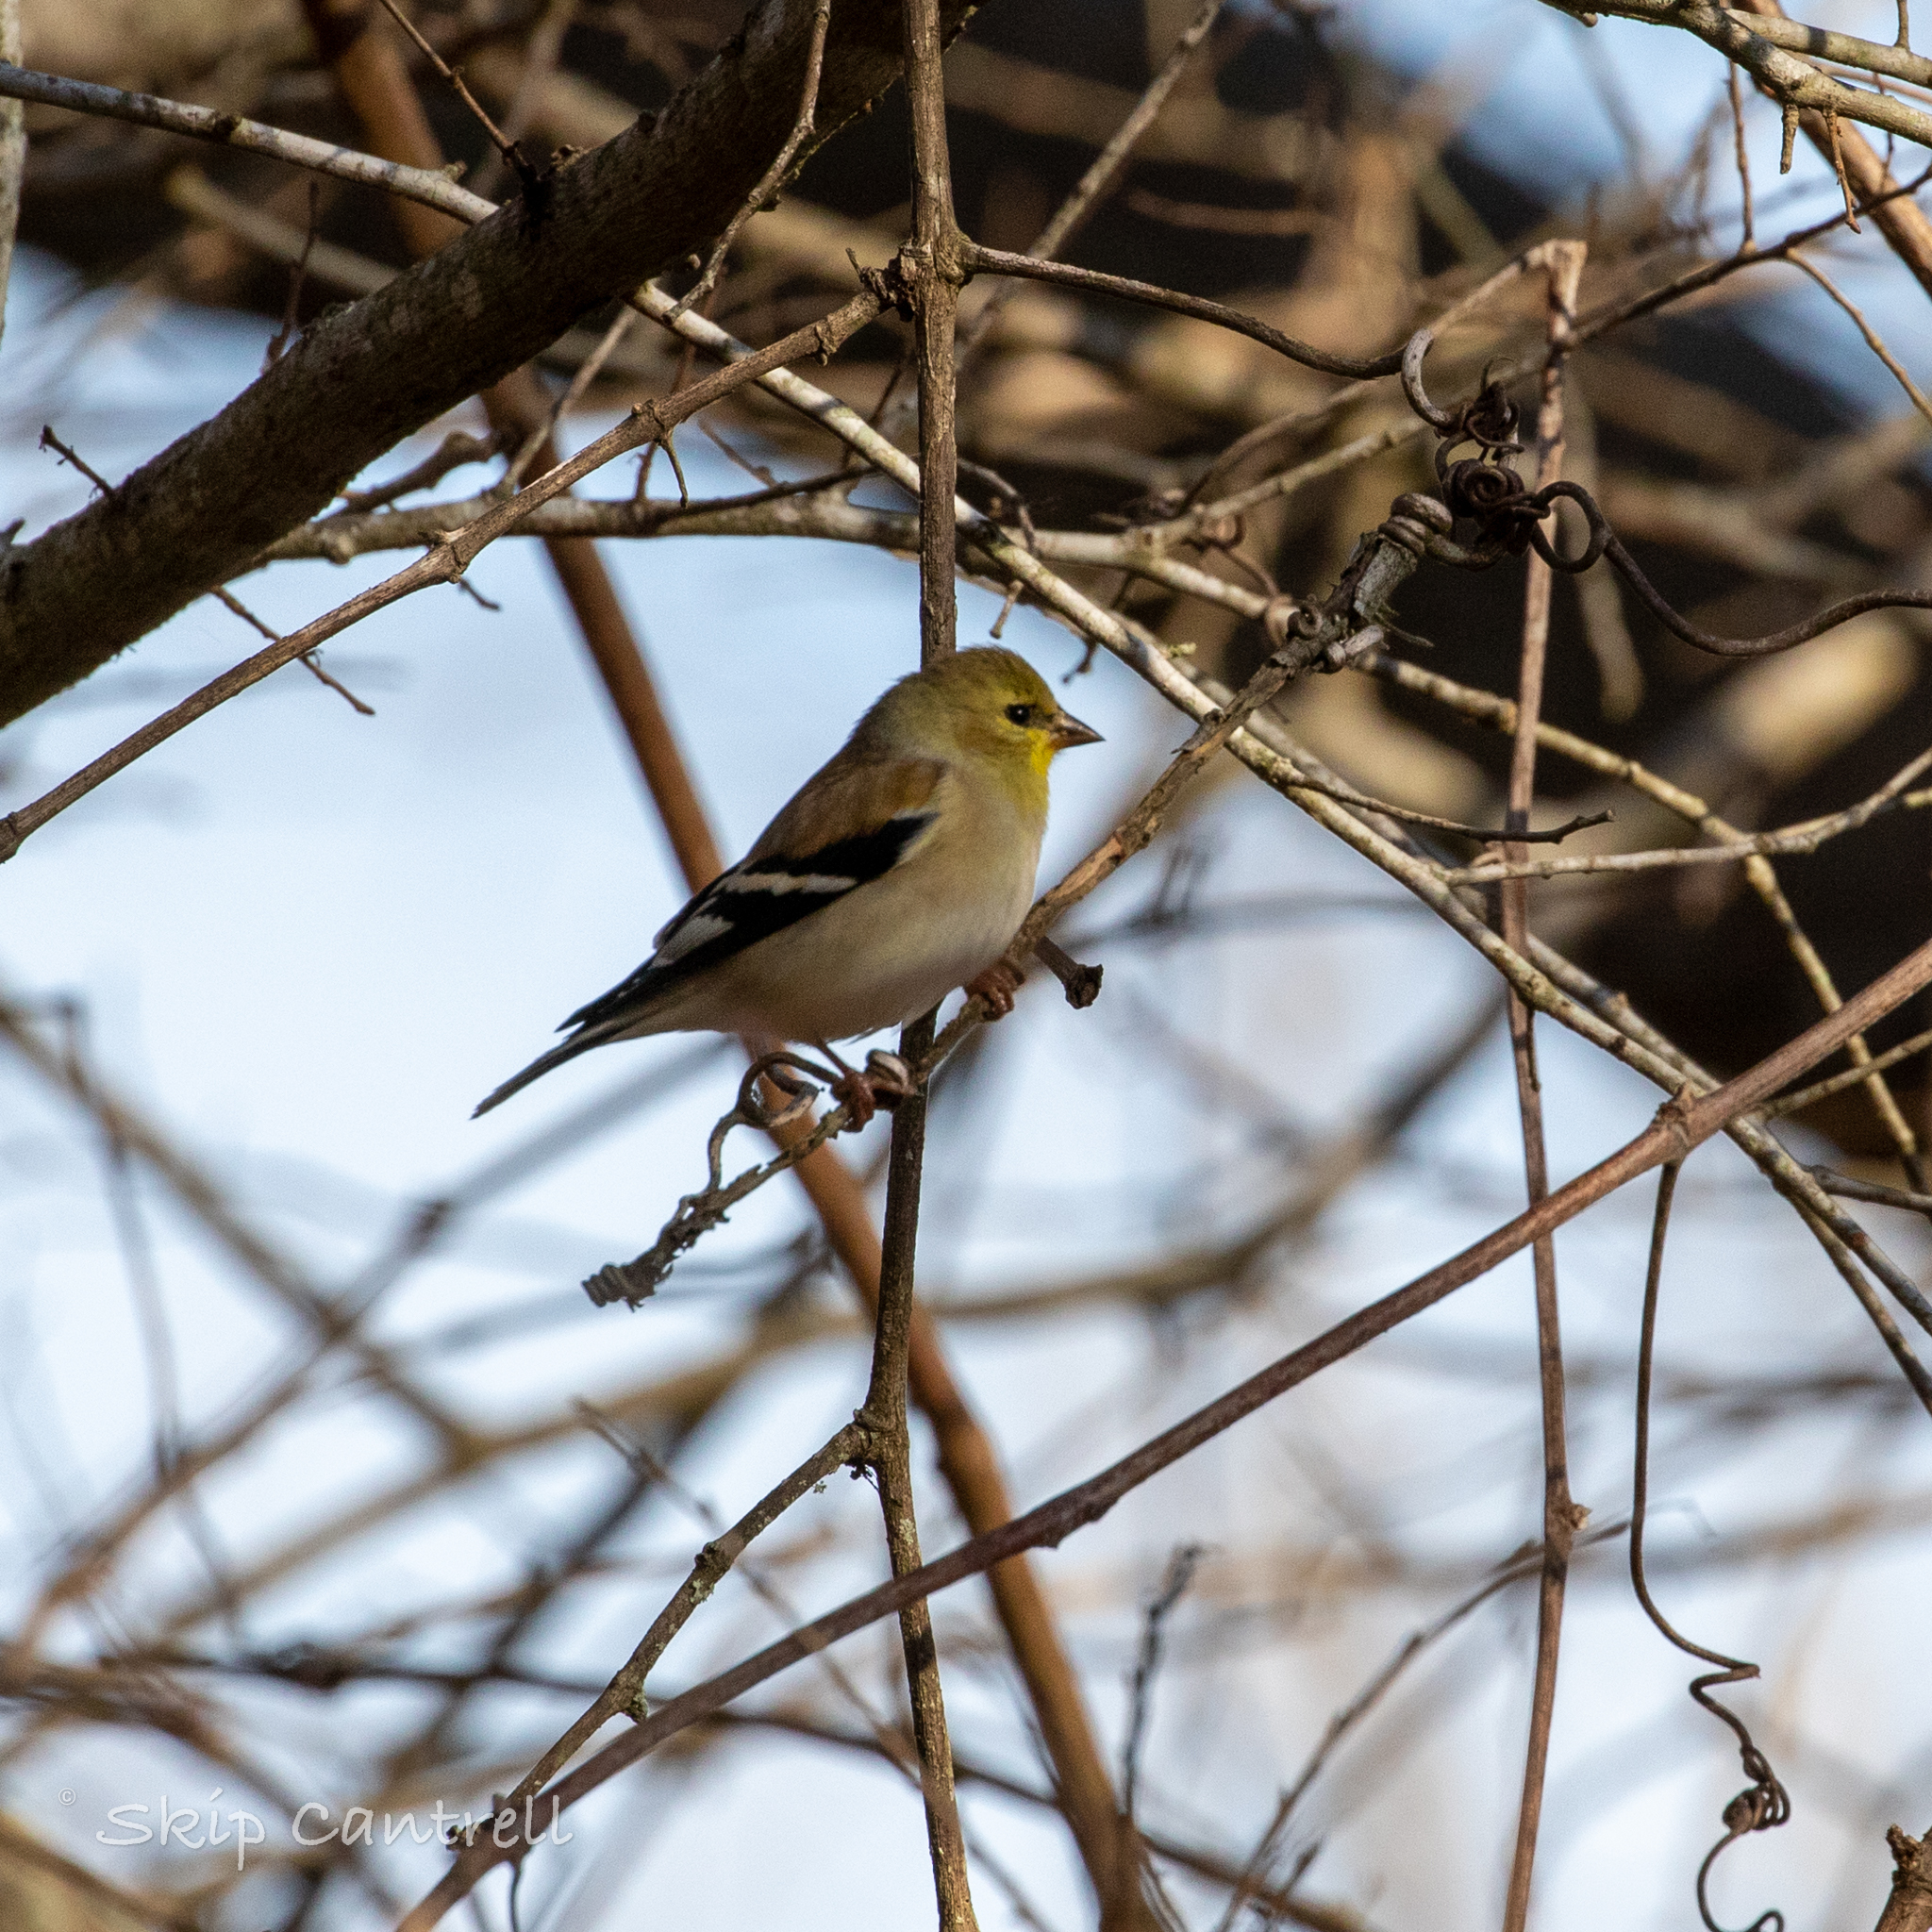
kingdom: Animalia
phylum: Chordata
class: Aves
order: Passeriformes
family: Fringillidae
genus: Spinus
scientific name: Spinus tristis
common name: American goldfinch
